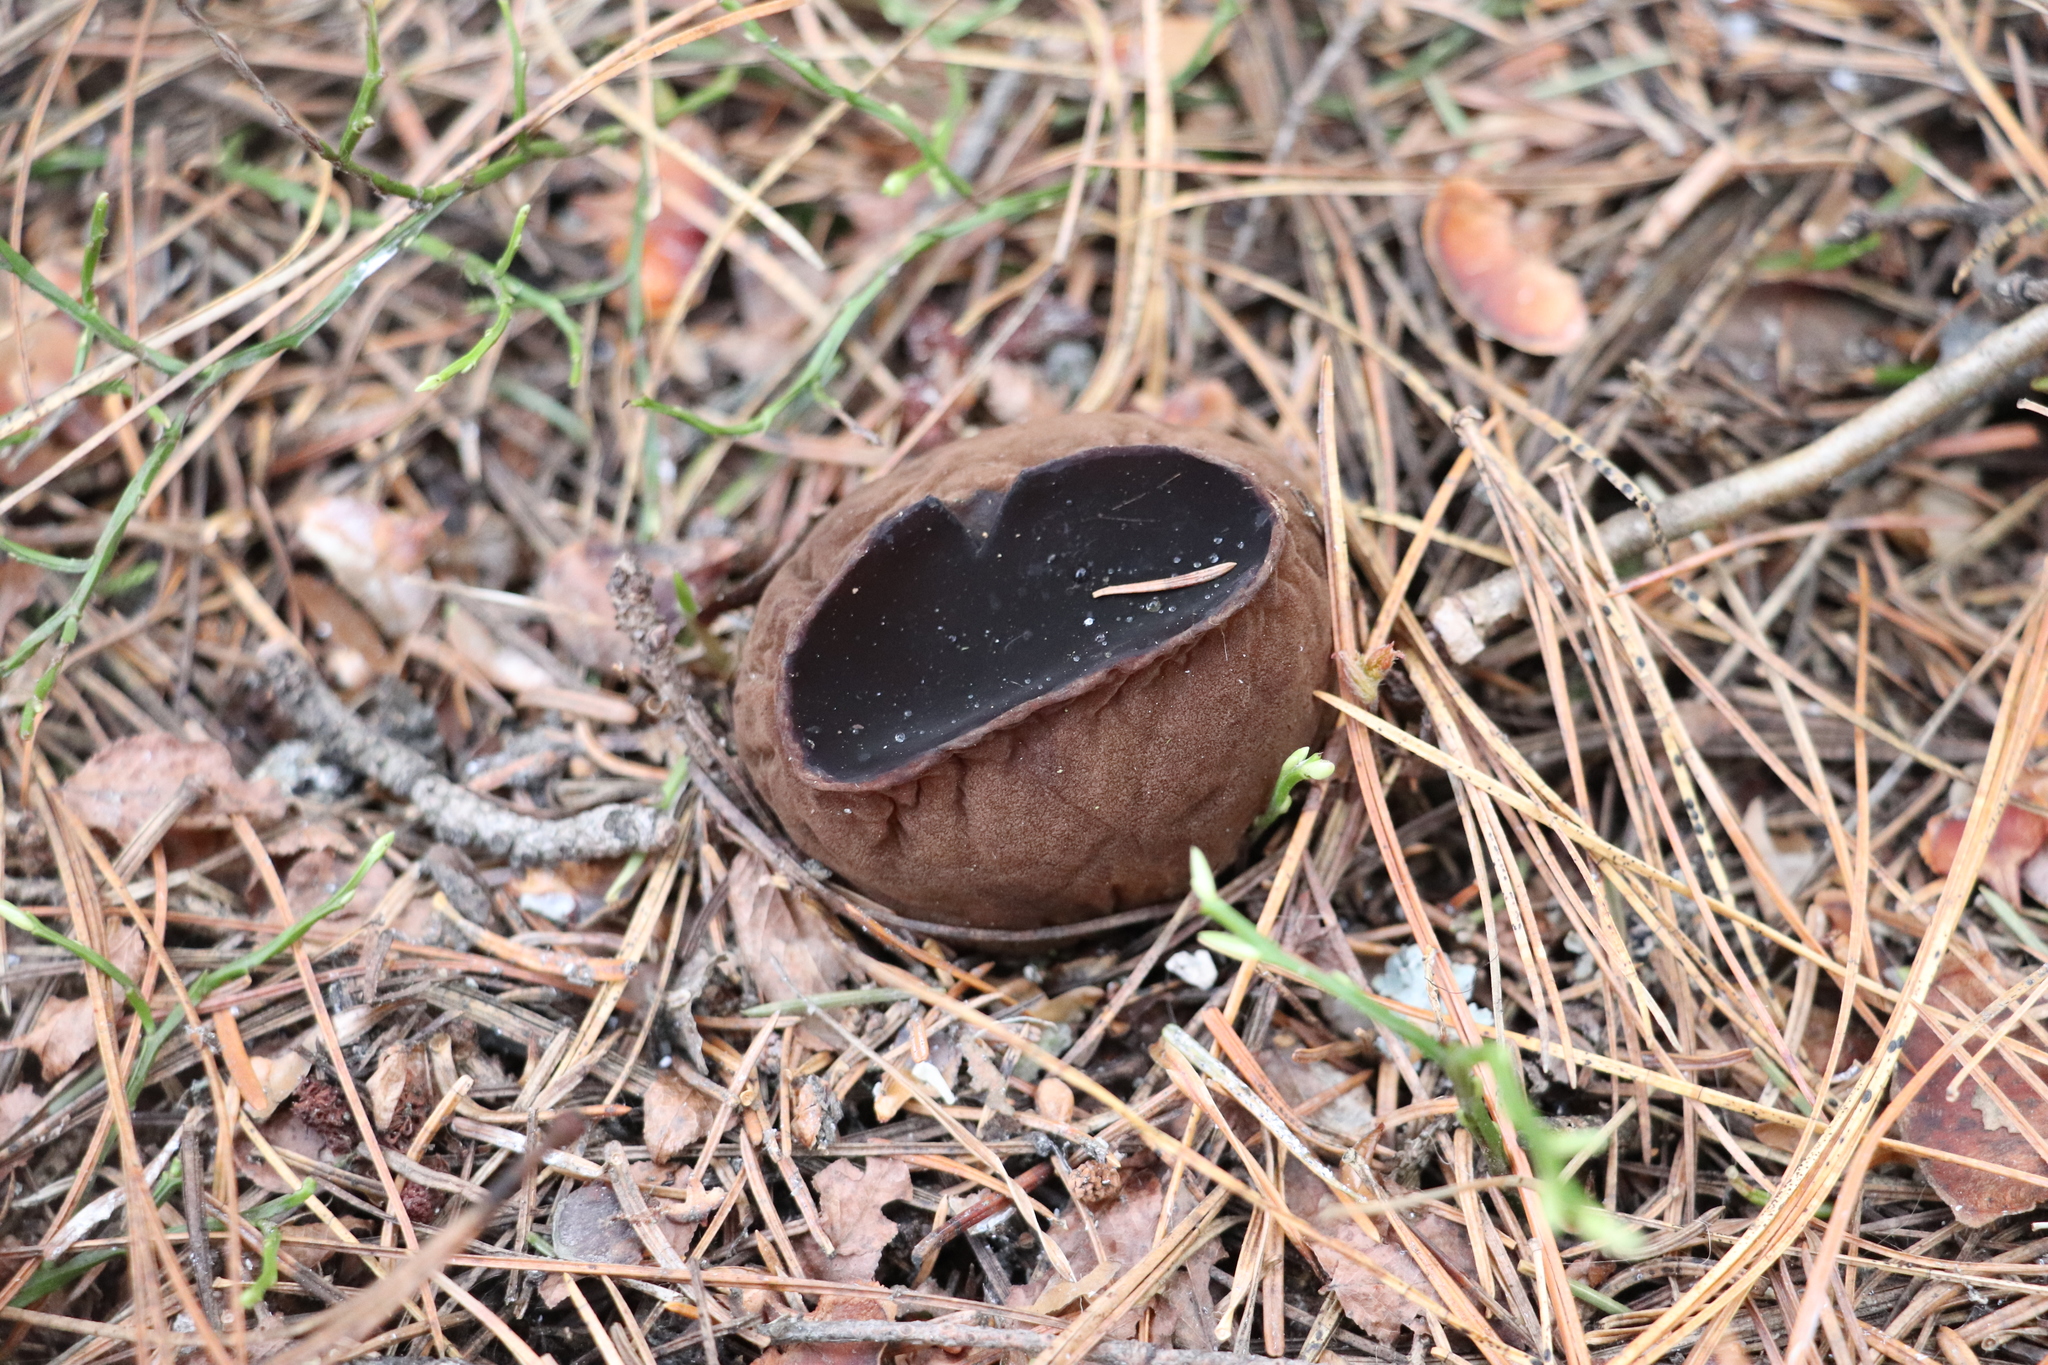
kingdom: Fungi
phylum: Ascomycota
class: Pezizomycetes
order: Pezizales
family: Sarcosomataceae
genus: Sarcosoma
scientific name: Sarcosoma globosum
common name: Charred-pancake cup
